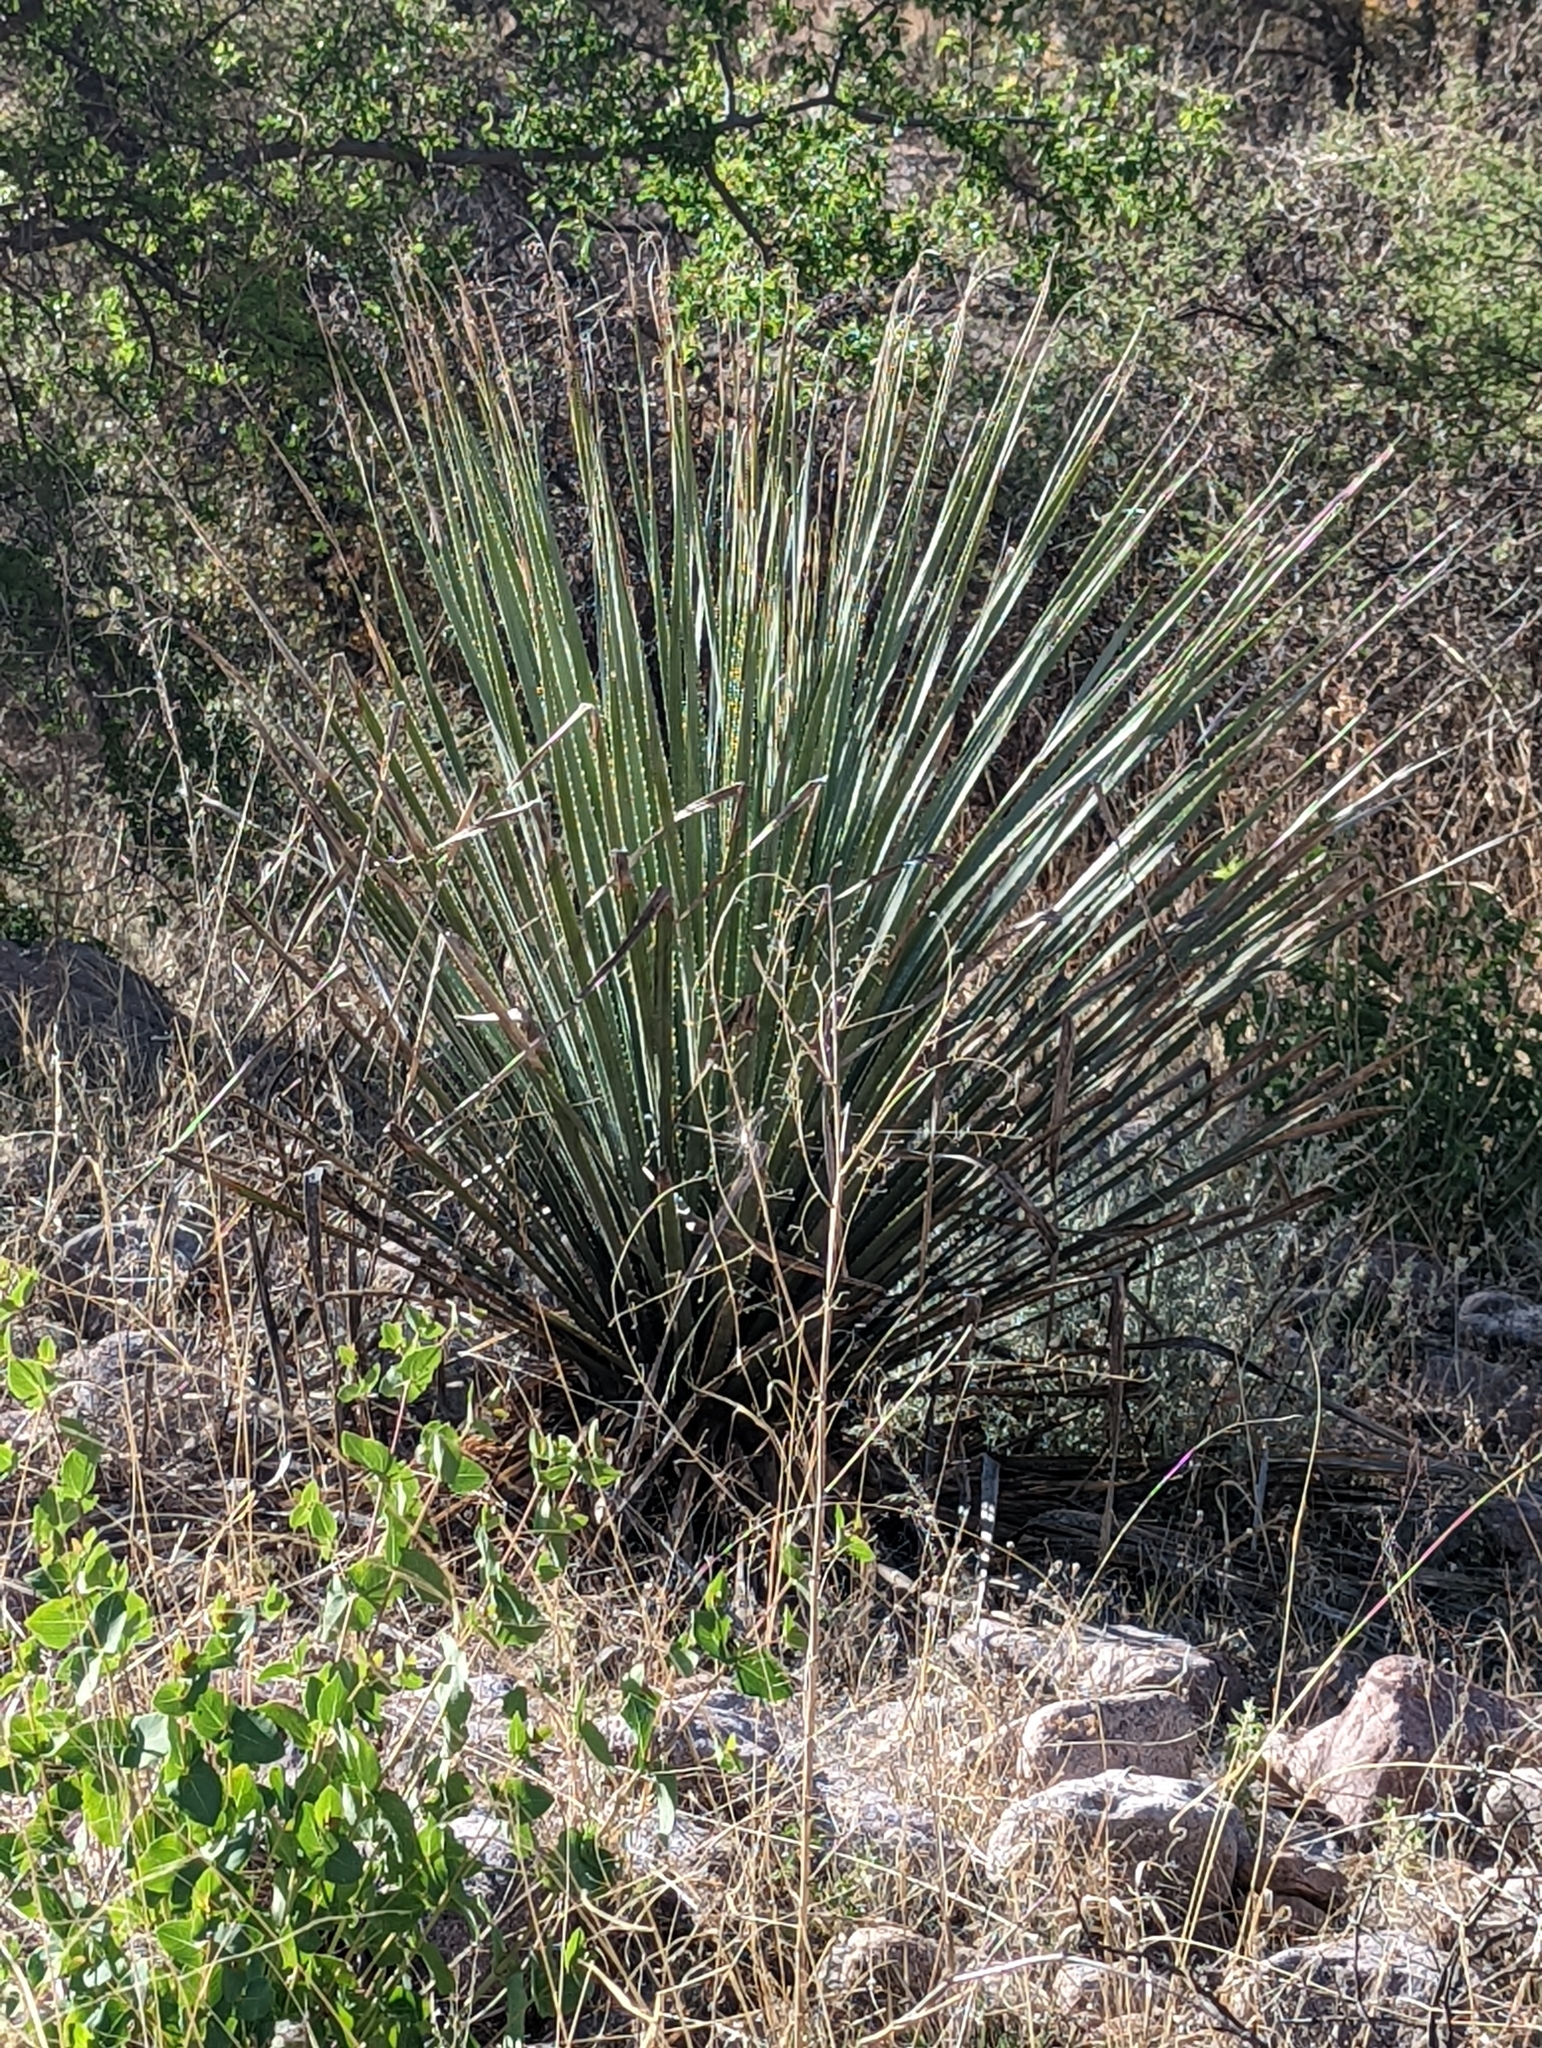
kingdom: Plantae
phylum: Tracheophyta
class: Liliopsida
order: Asparagales
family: Asparagaceae
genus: Dasylirion
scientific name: Dasylirion wheeleri
